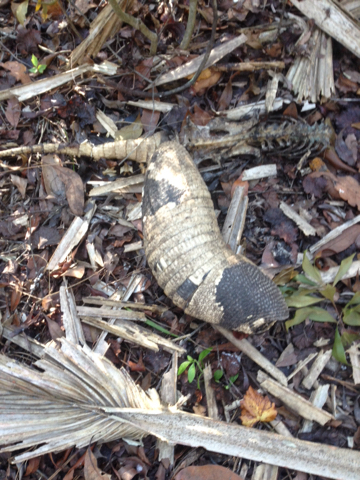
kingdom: Animalia
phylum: Chordata
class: Mammalia
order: Cingulata
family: Dasypodidae
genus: Dasypus
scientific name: Dasypus novemcinctus
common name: Nine-banded armadillo
